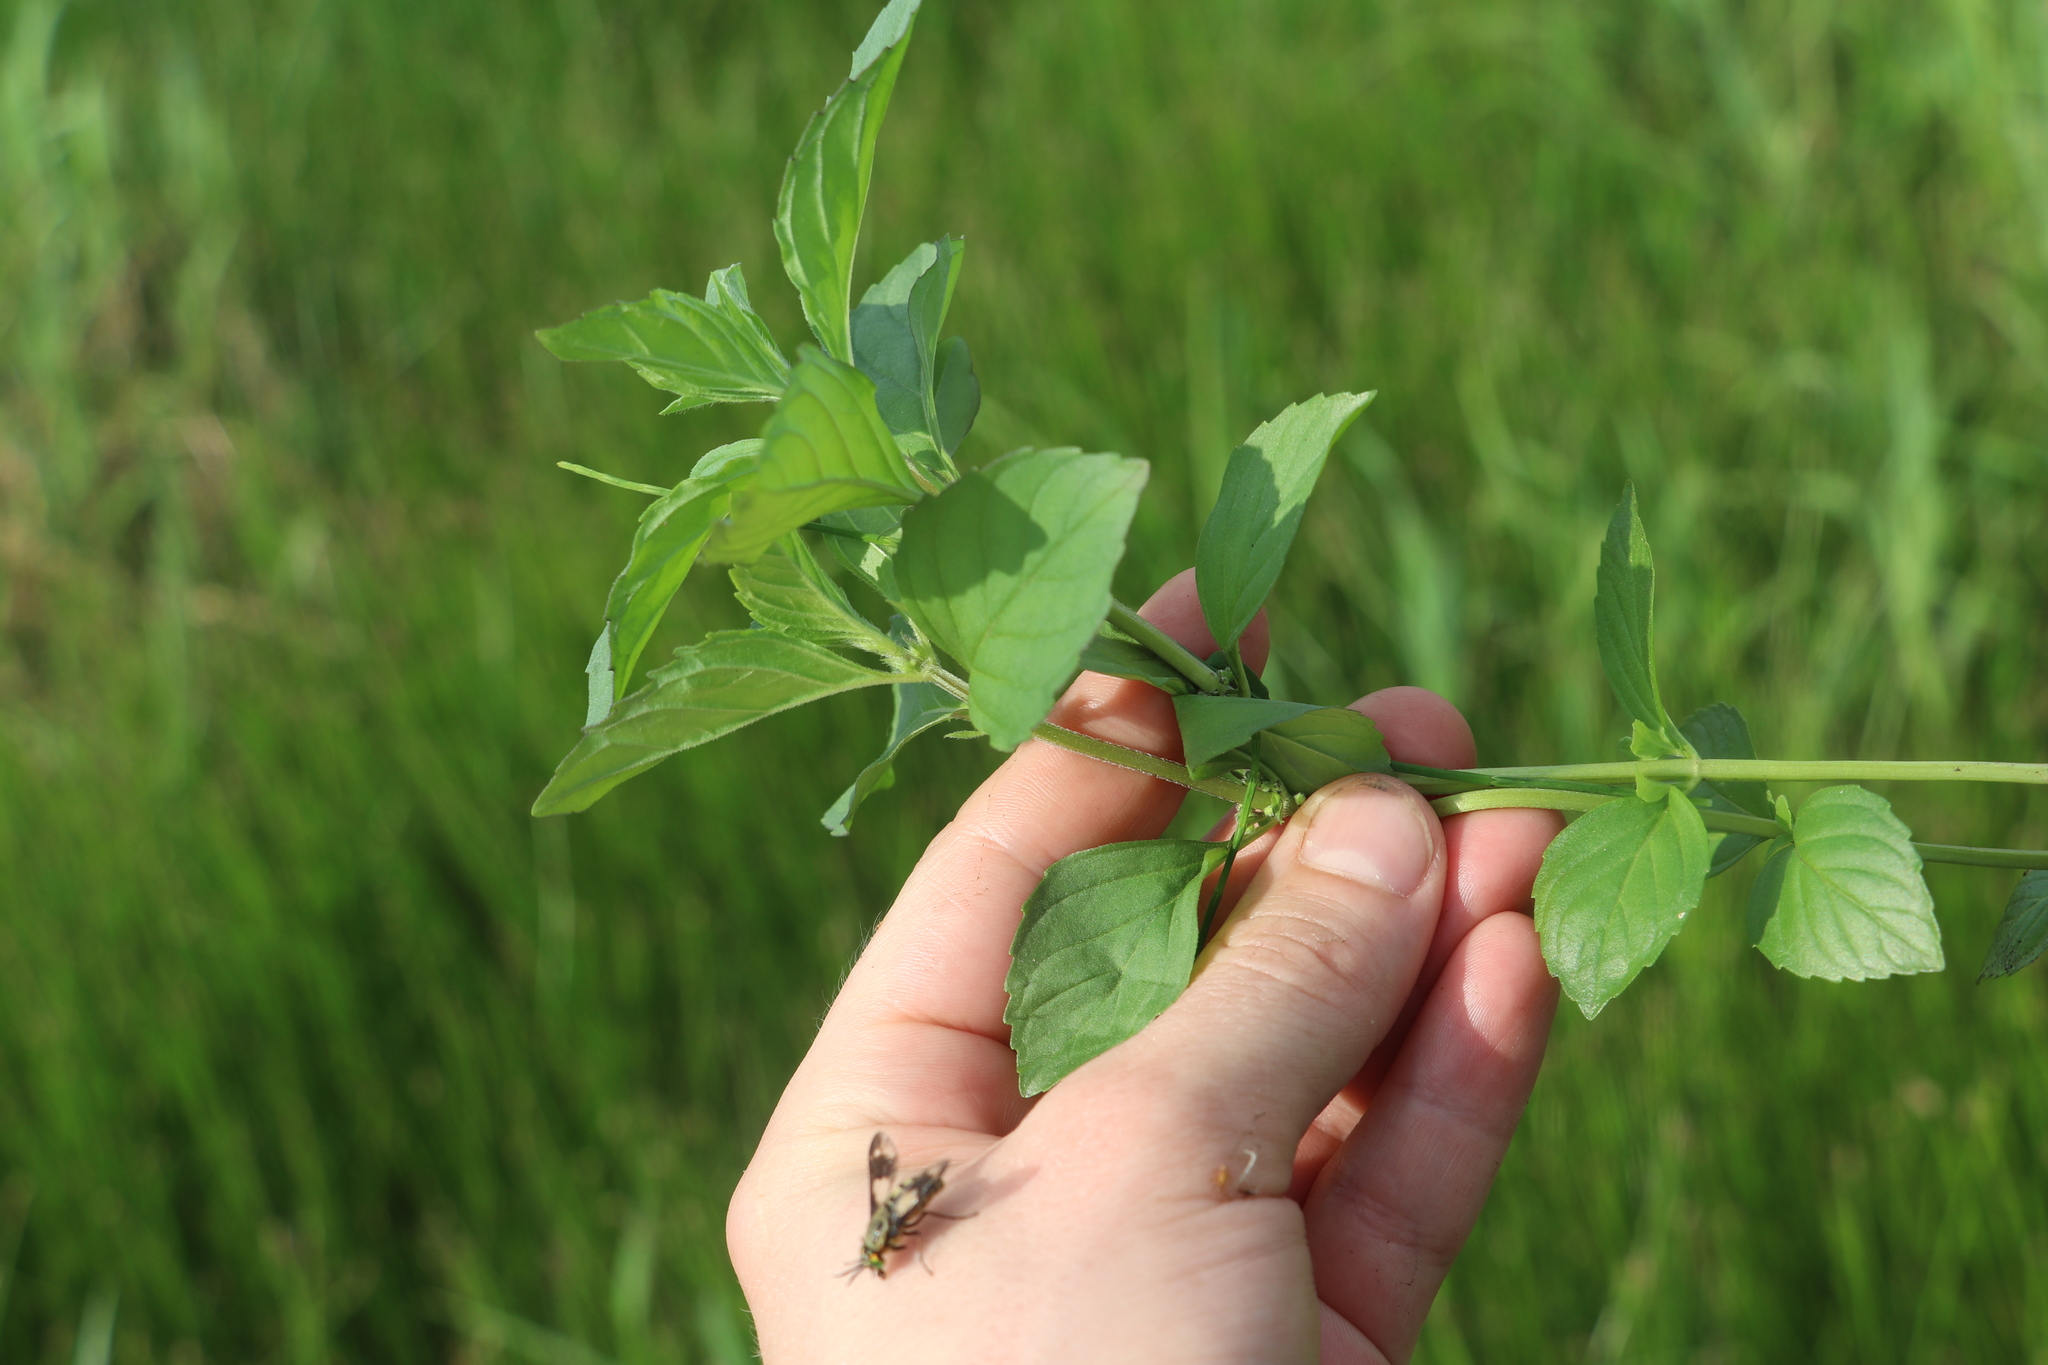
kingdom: Plantae
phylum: Tracheophyta
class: Magnoliopsida
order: Lamiales
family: Lamiaceae
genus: Mentha
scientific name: Mentha arvensis
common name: Corn mint
